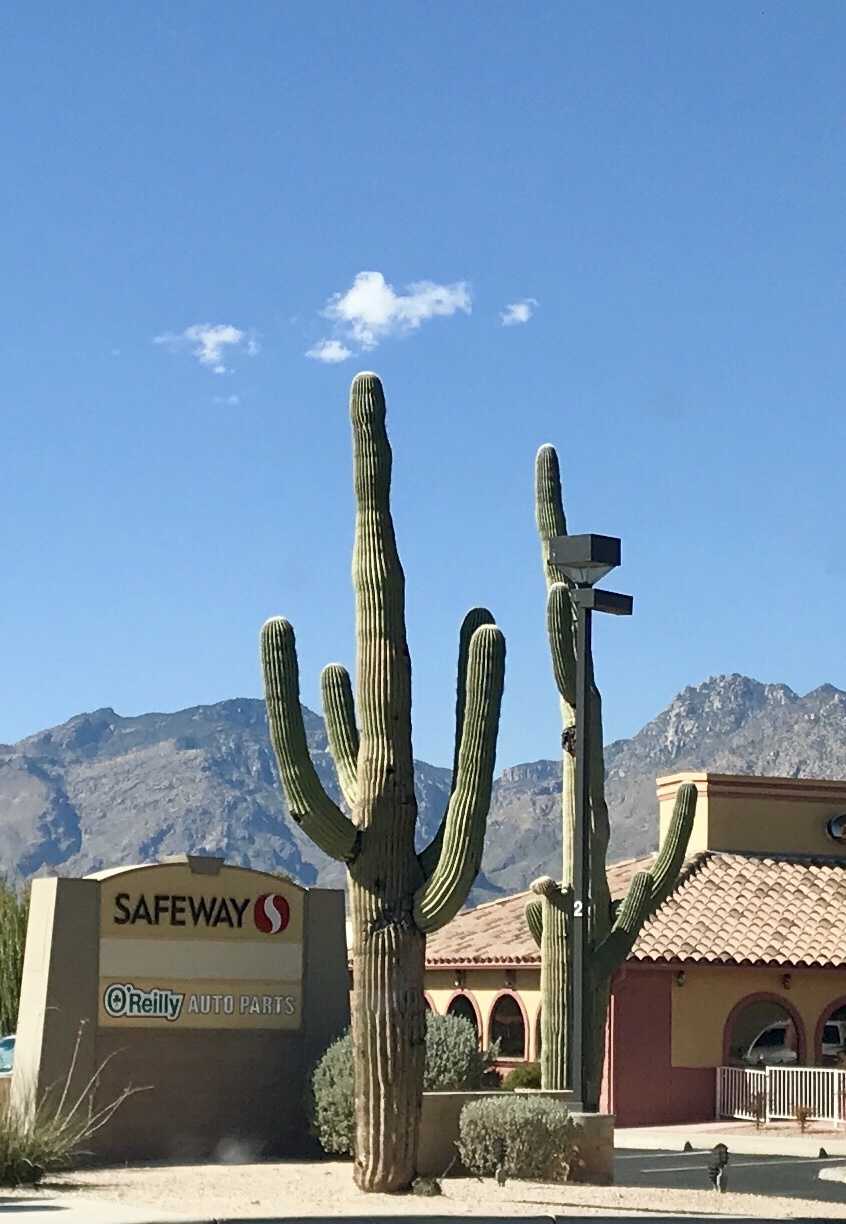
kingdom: Plantae
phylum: Tracheophyta
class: Magnoliopsida
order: Caryophyllales
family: Cactaceae
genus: Carnegiea
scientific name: Carnegiea gigantea
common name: Saguaro
